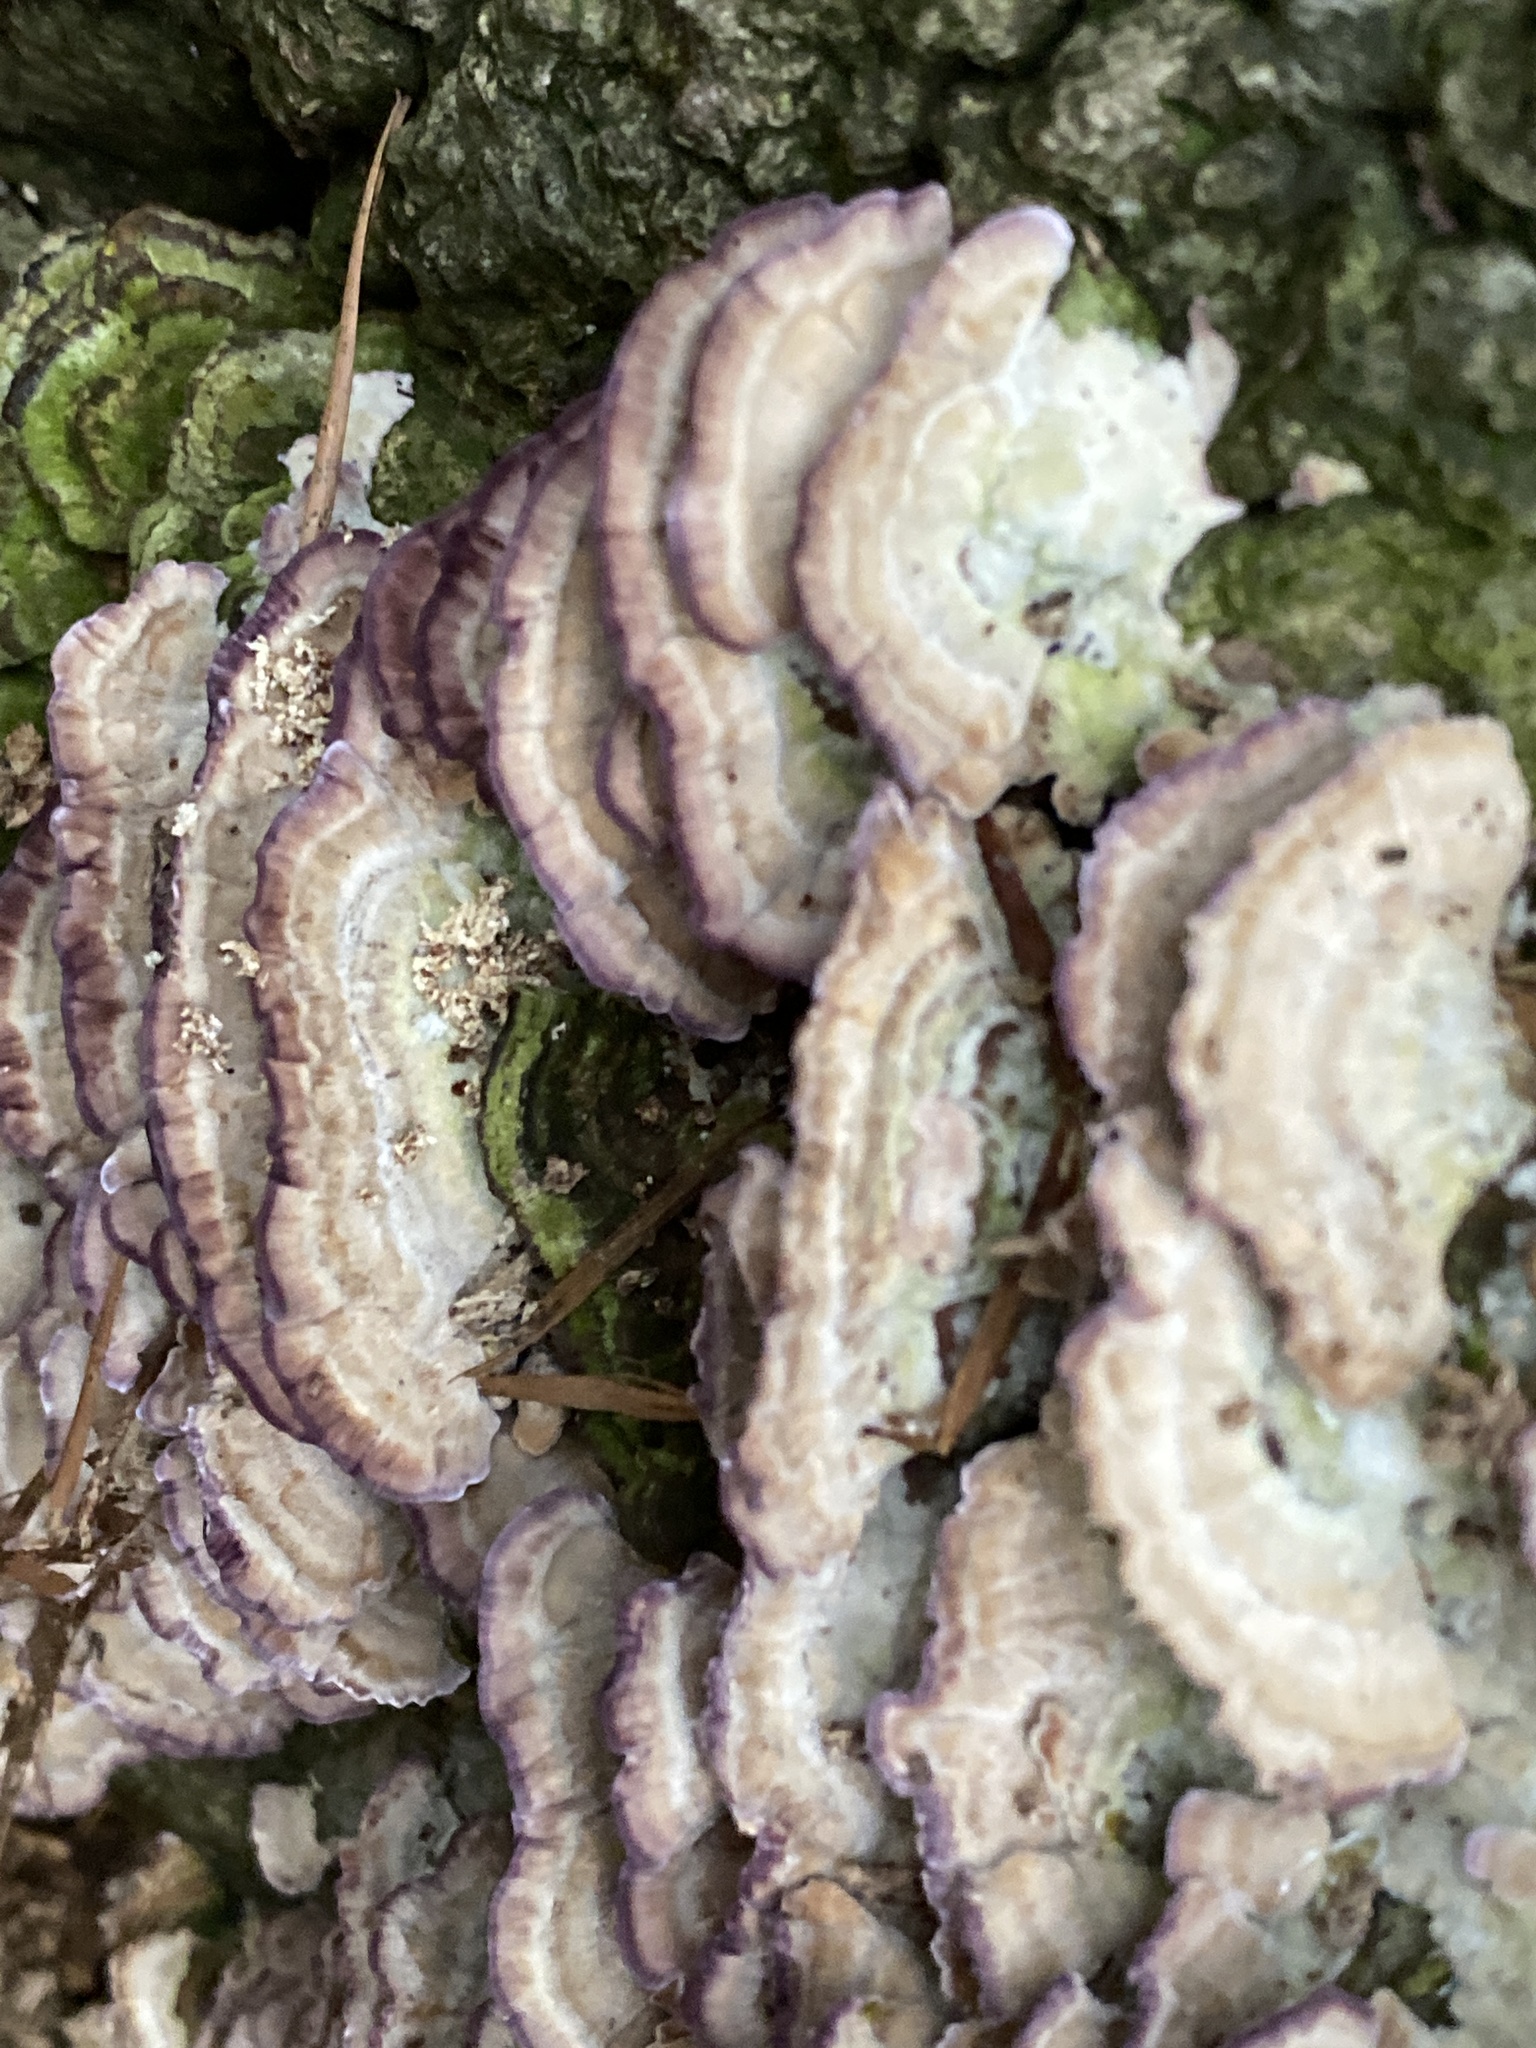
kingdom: Fungi
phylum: Basidiomycota
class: Agaricomycetes
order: Hymenochaetales
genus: Trichaptum
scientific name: Trichaptum biforme
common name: Violet-toothed polypore
